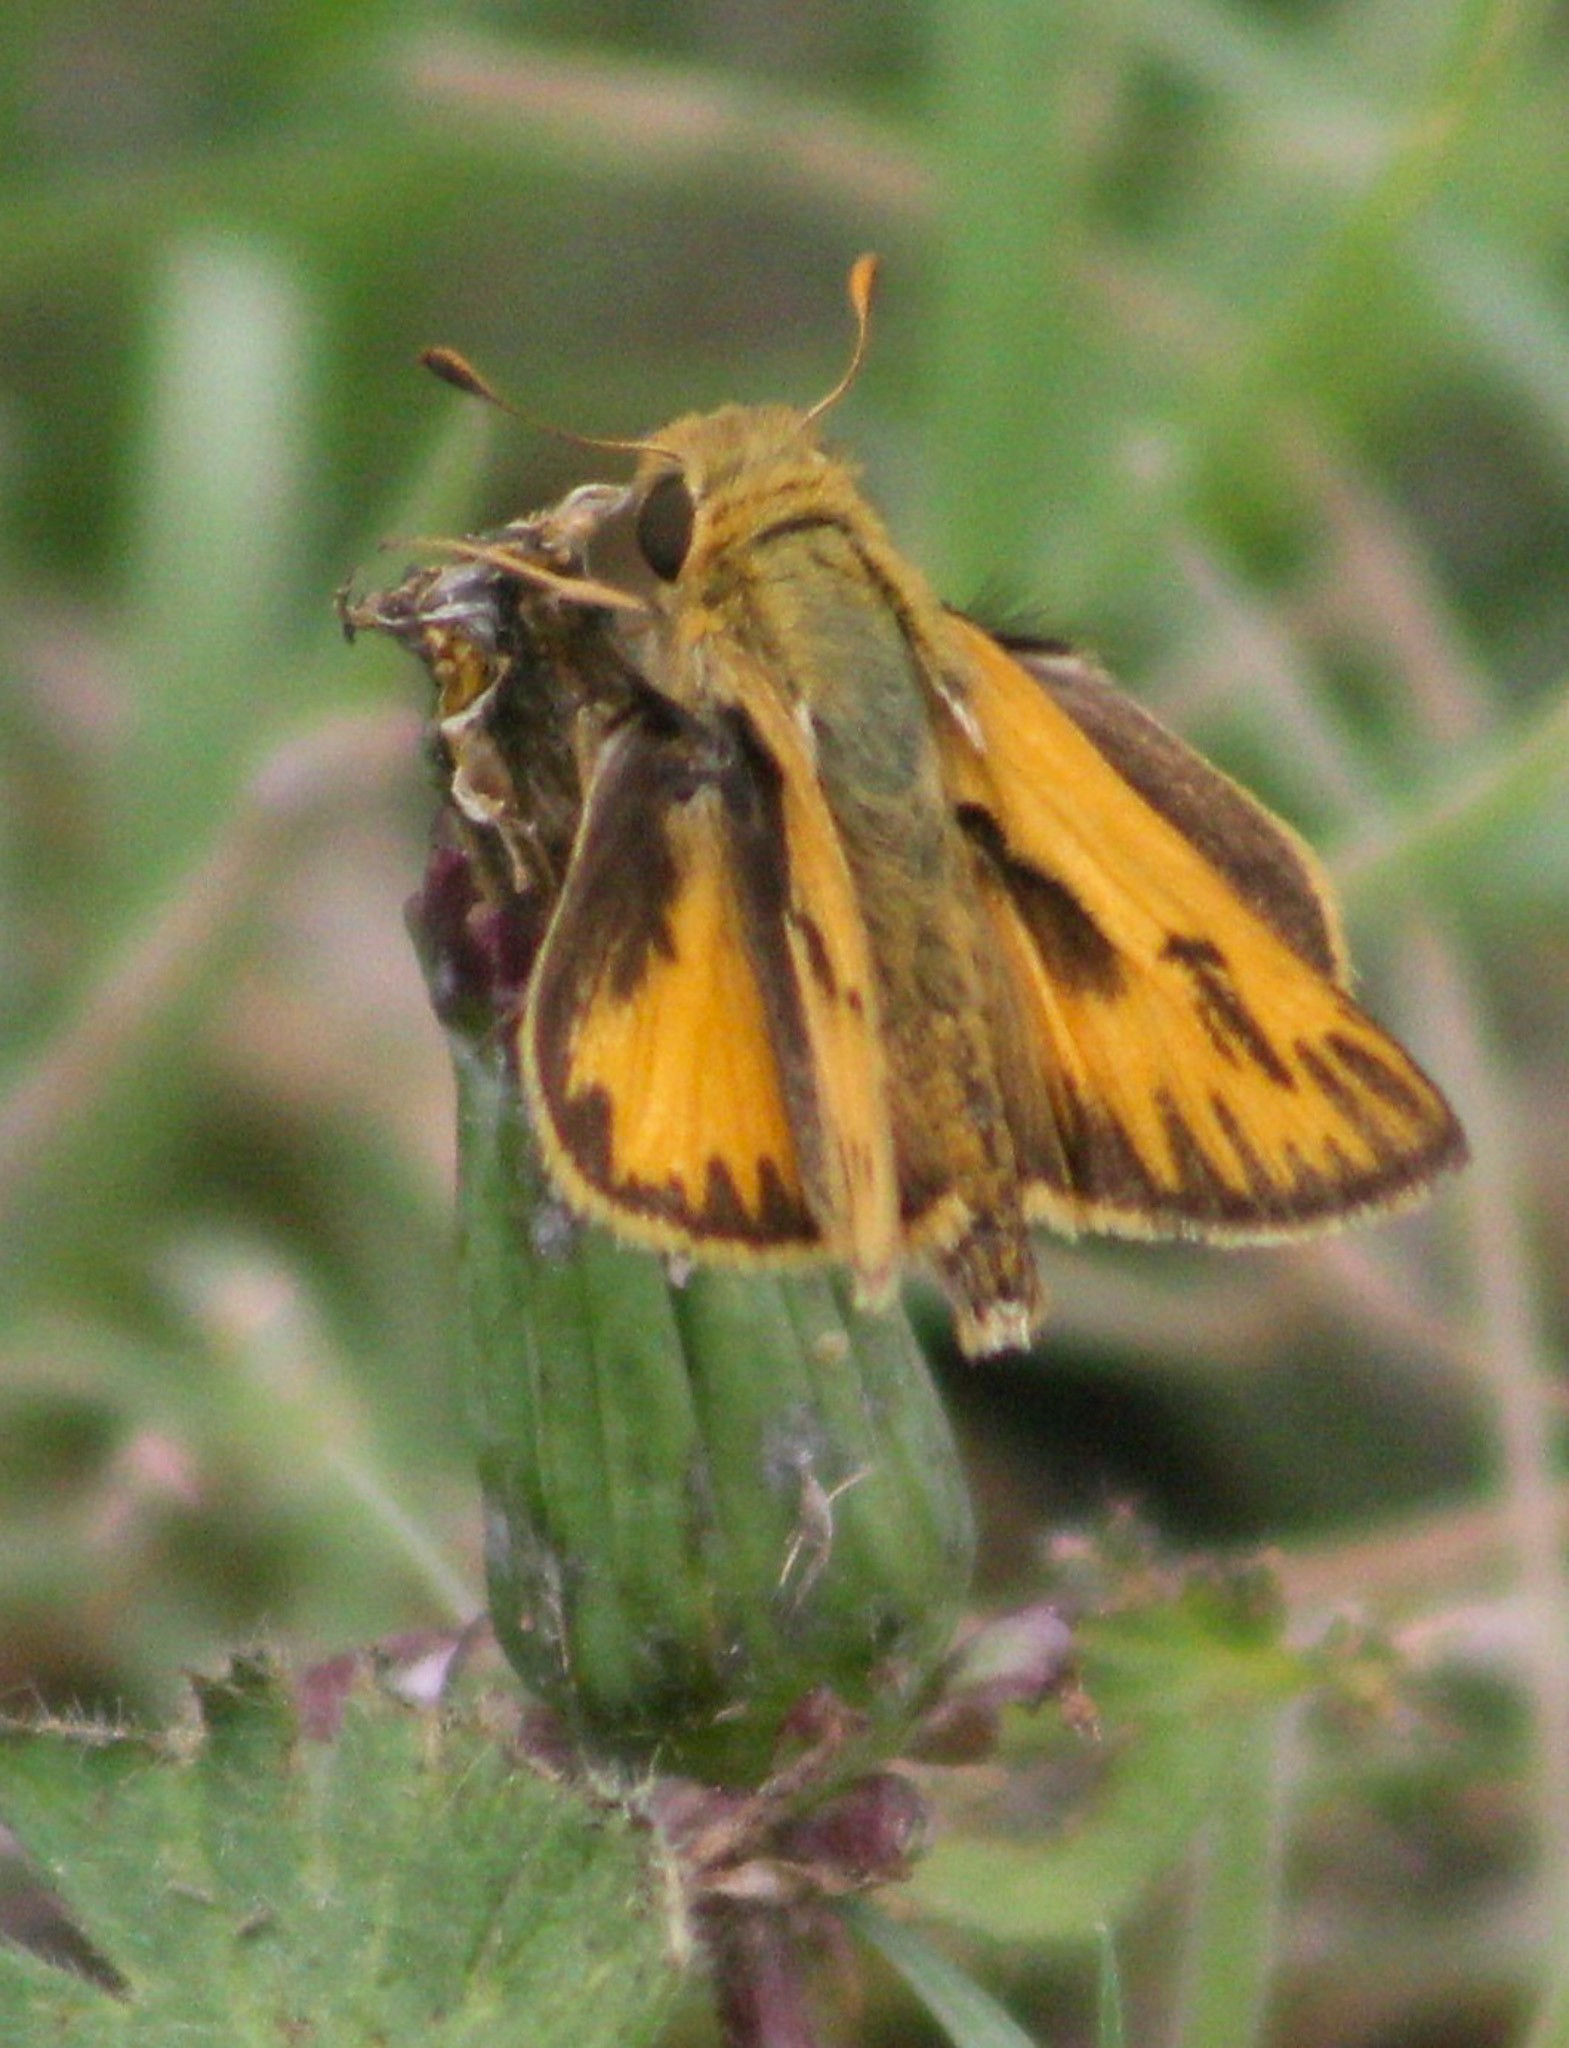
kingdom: Animalia
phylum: Arthropoda
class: Insecta
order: Lepidoptera
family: Hesperiidae
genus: Hylephila
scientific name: Hylephila phyleus
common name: Fiery skipper
